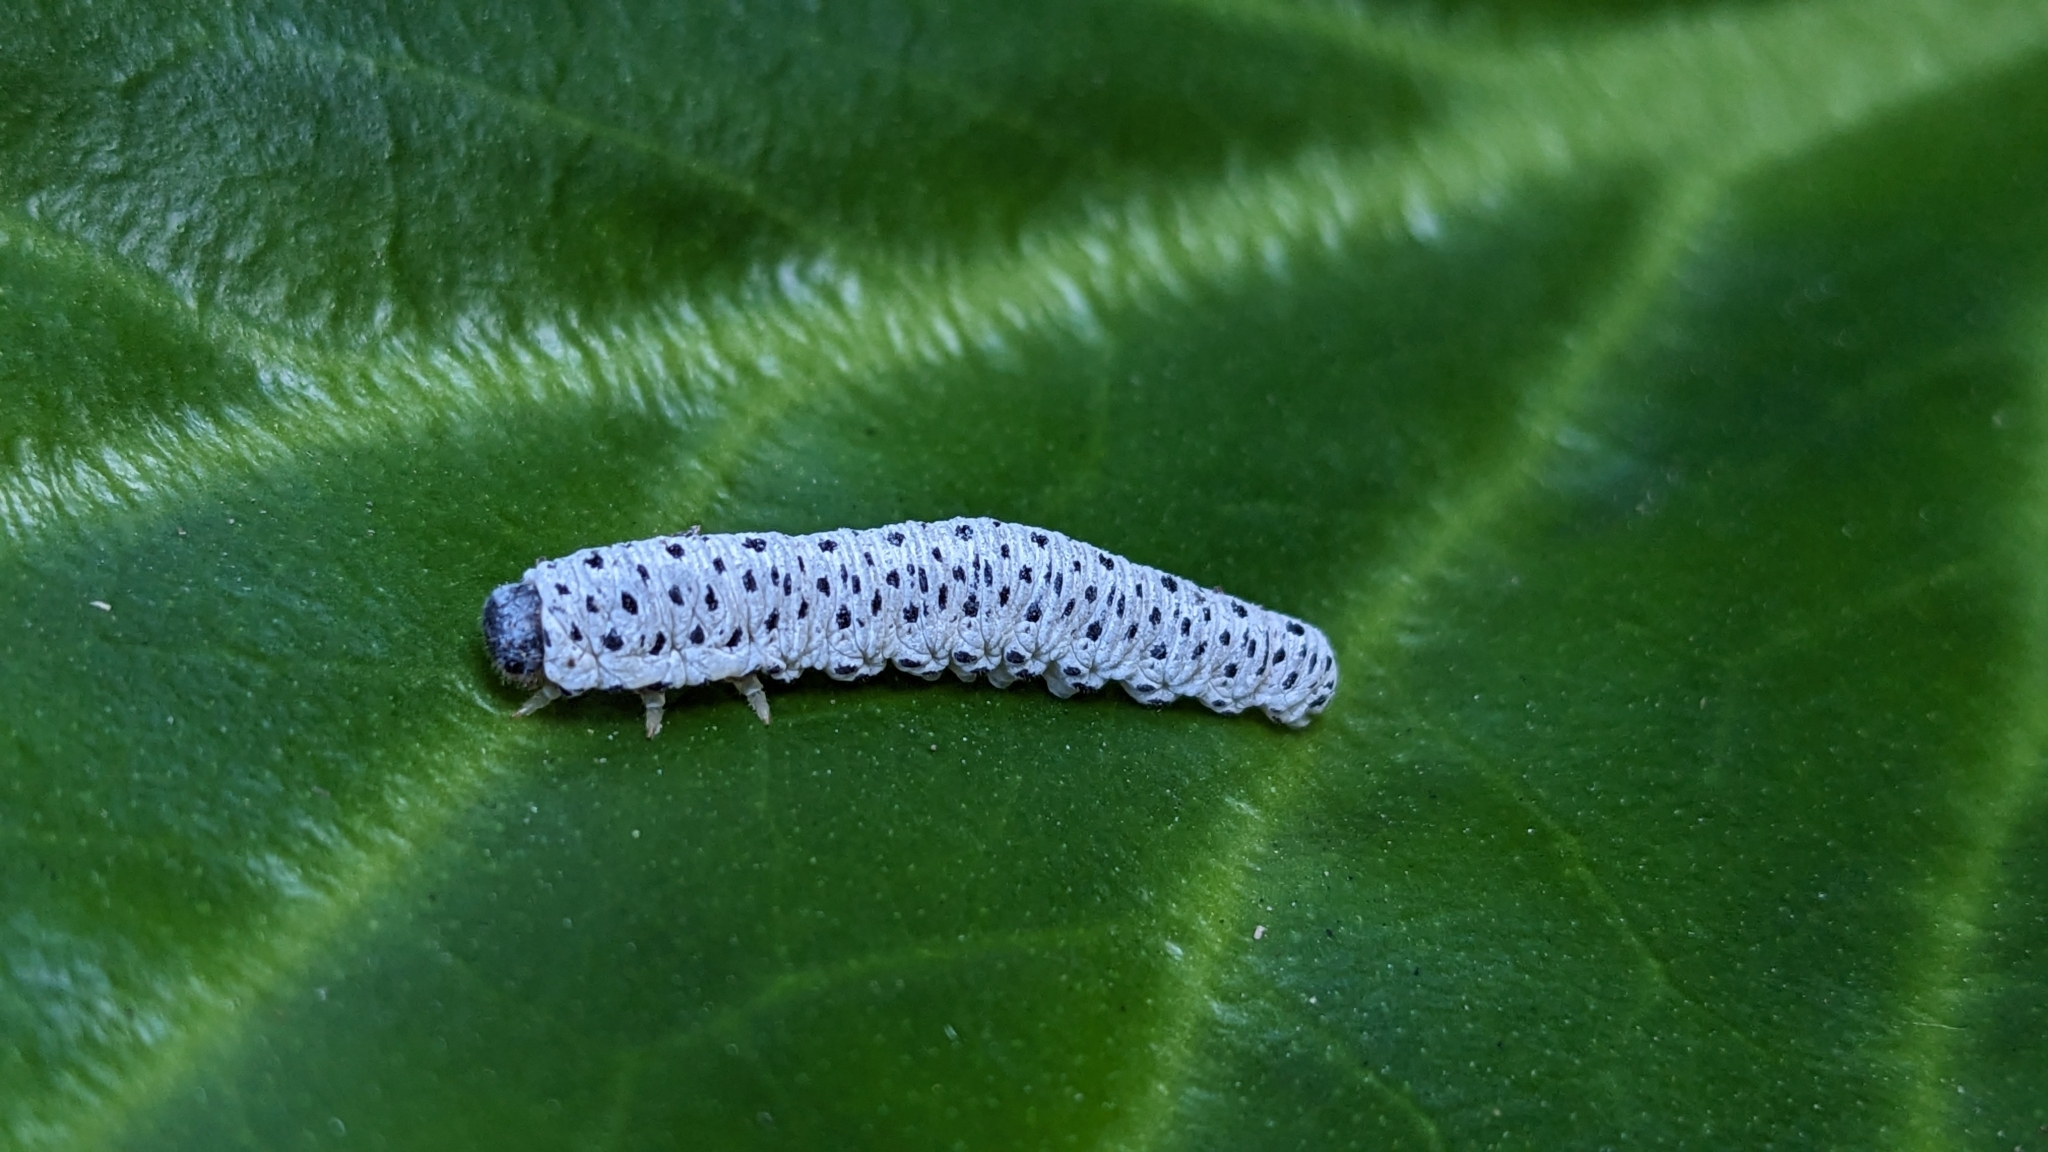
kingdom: Animalia
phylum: Arthropoda
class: Insecta
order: Hymenoptera
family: Tenthredinidae
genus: Tenthredo
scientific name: Tenthredo scrophulariae
